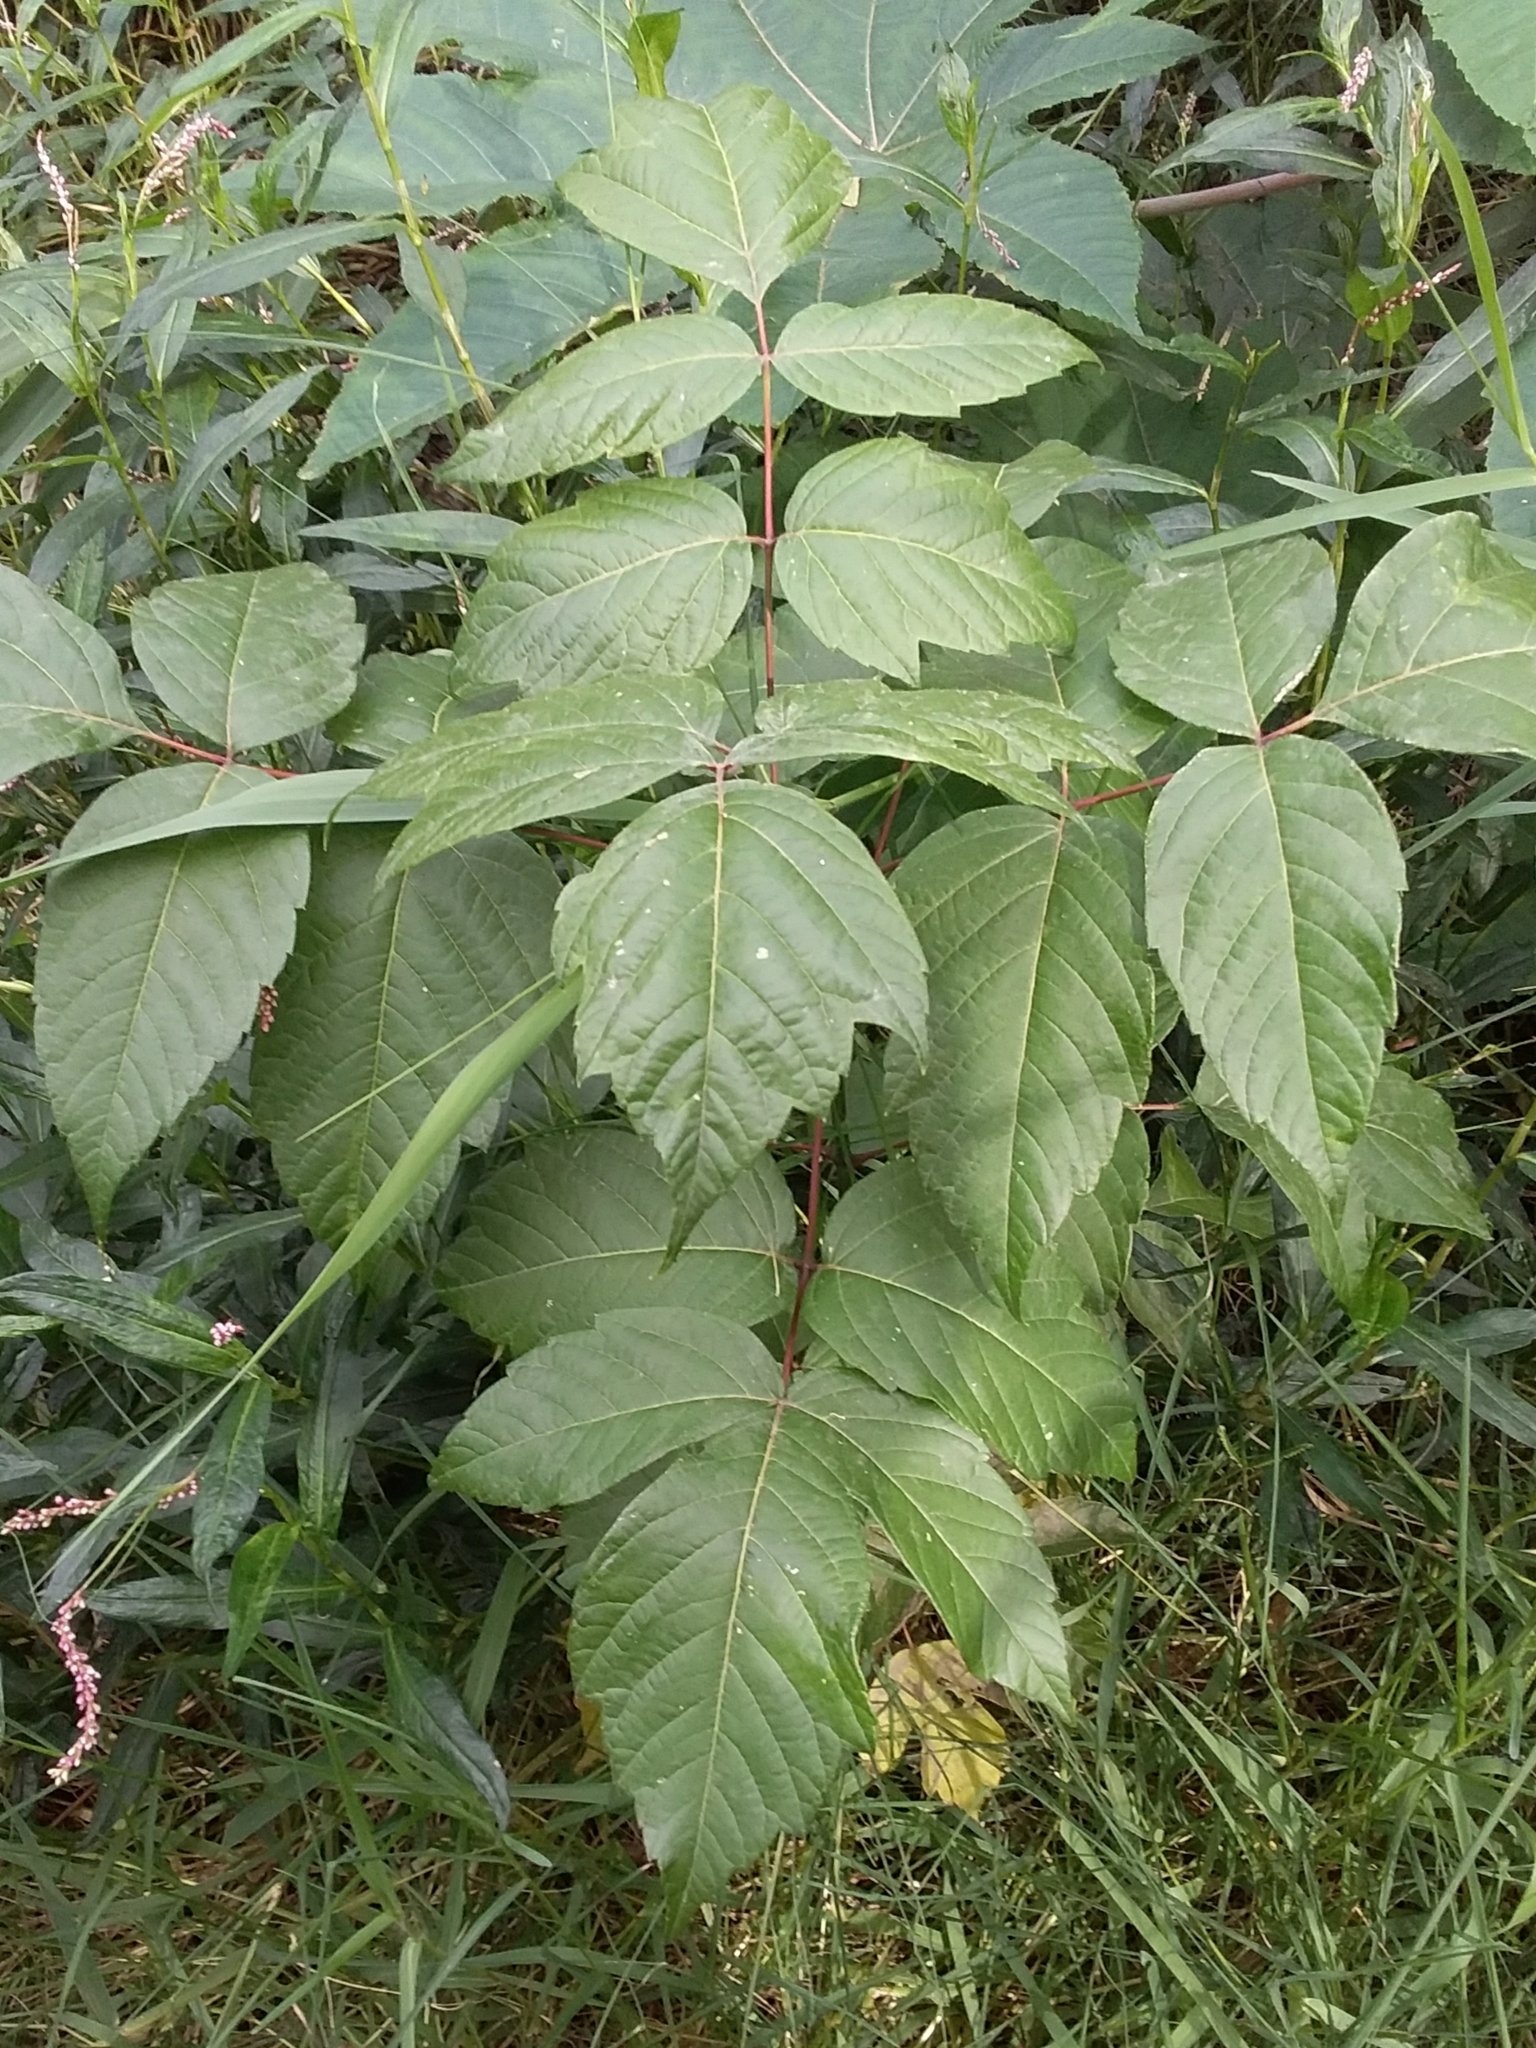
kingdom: Plantae
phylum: Tracheophyta
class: Magnoliopsida
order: Sapindales
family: Sapindaceae
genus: Acer
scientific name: Acer negundo
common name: Ashleaf maple
